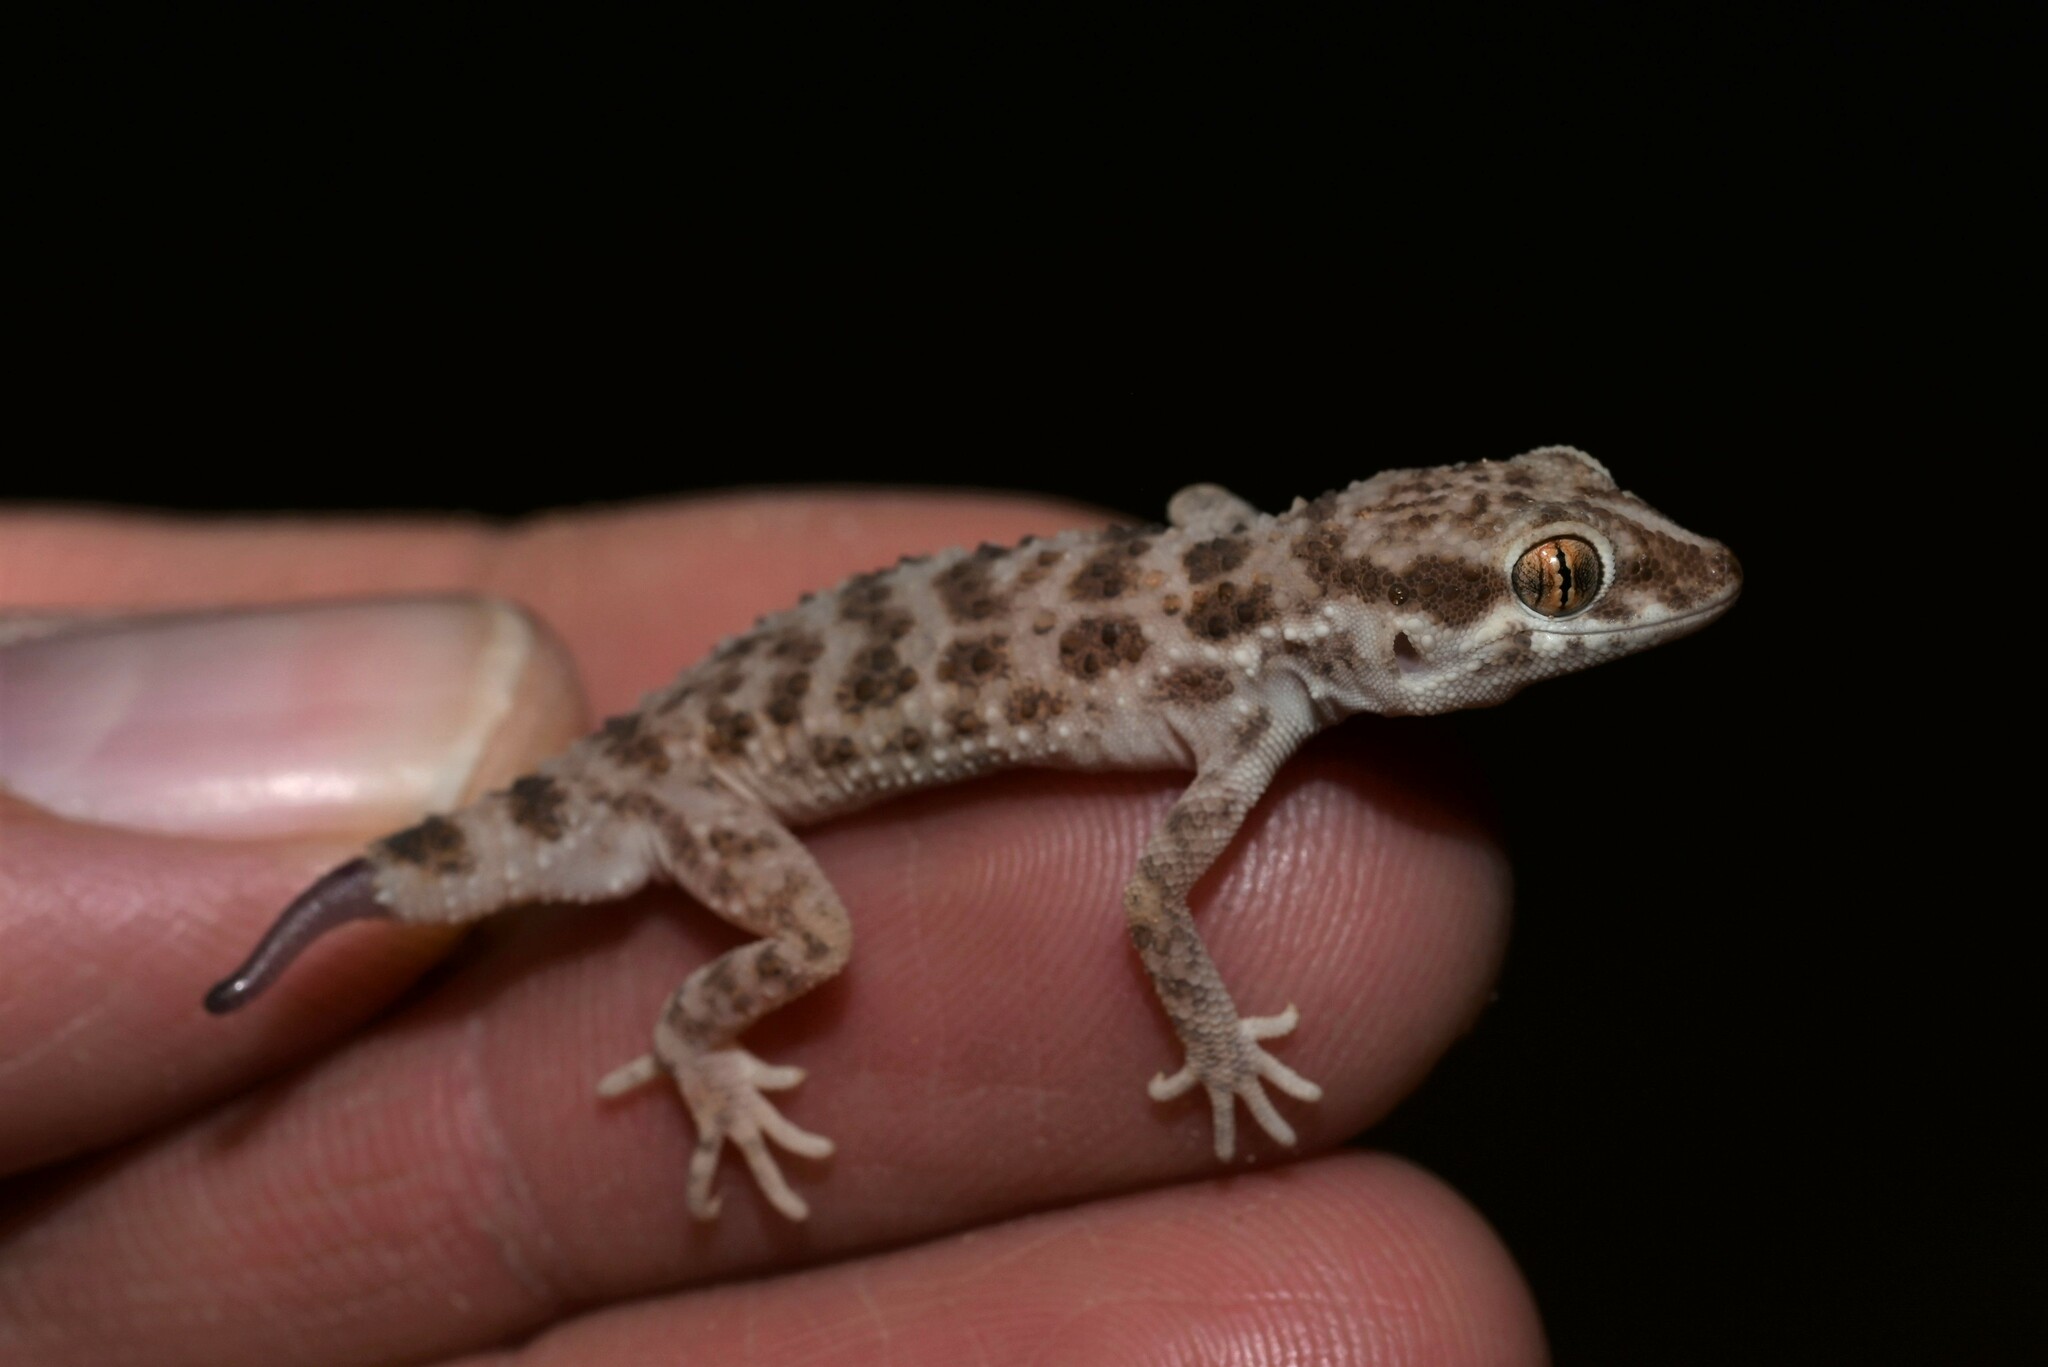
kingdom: Animalia
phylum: Chordata
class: Squamata
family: Gekkonidae
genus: Bunopus
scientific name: Bunopus tuberculatus
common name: Southern tuberculated gecko
